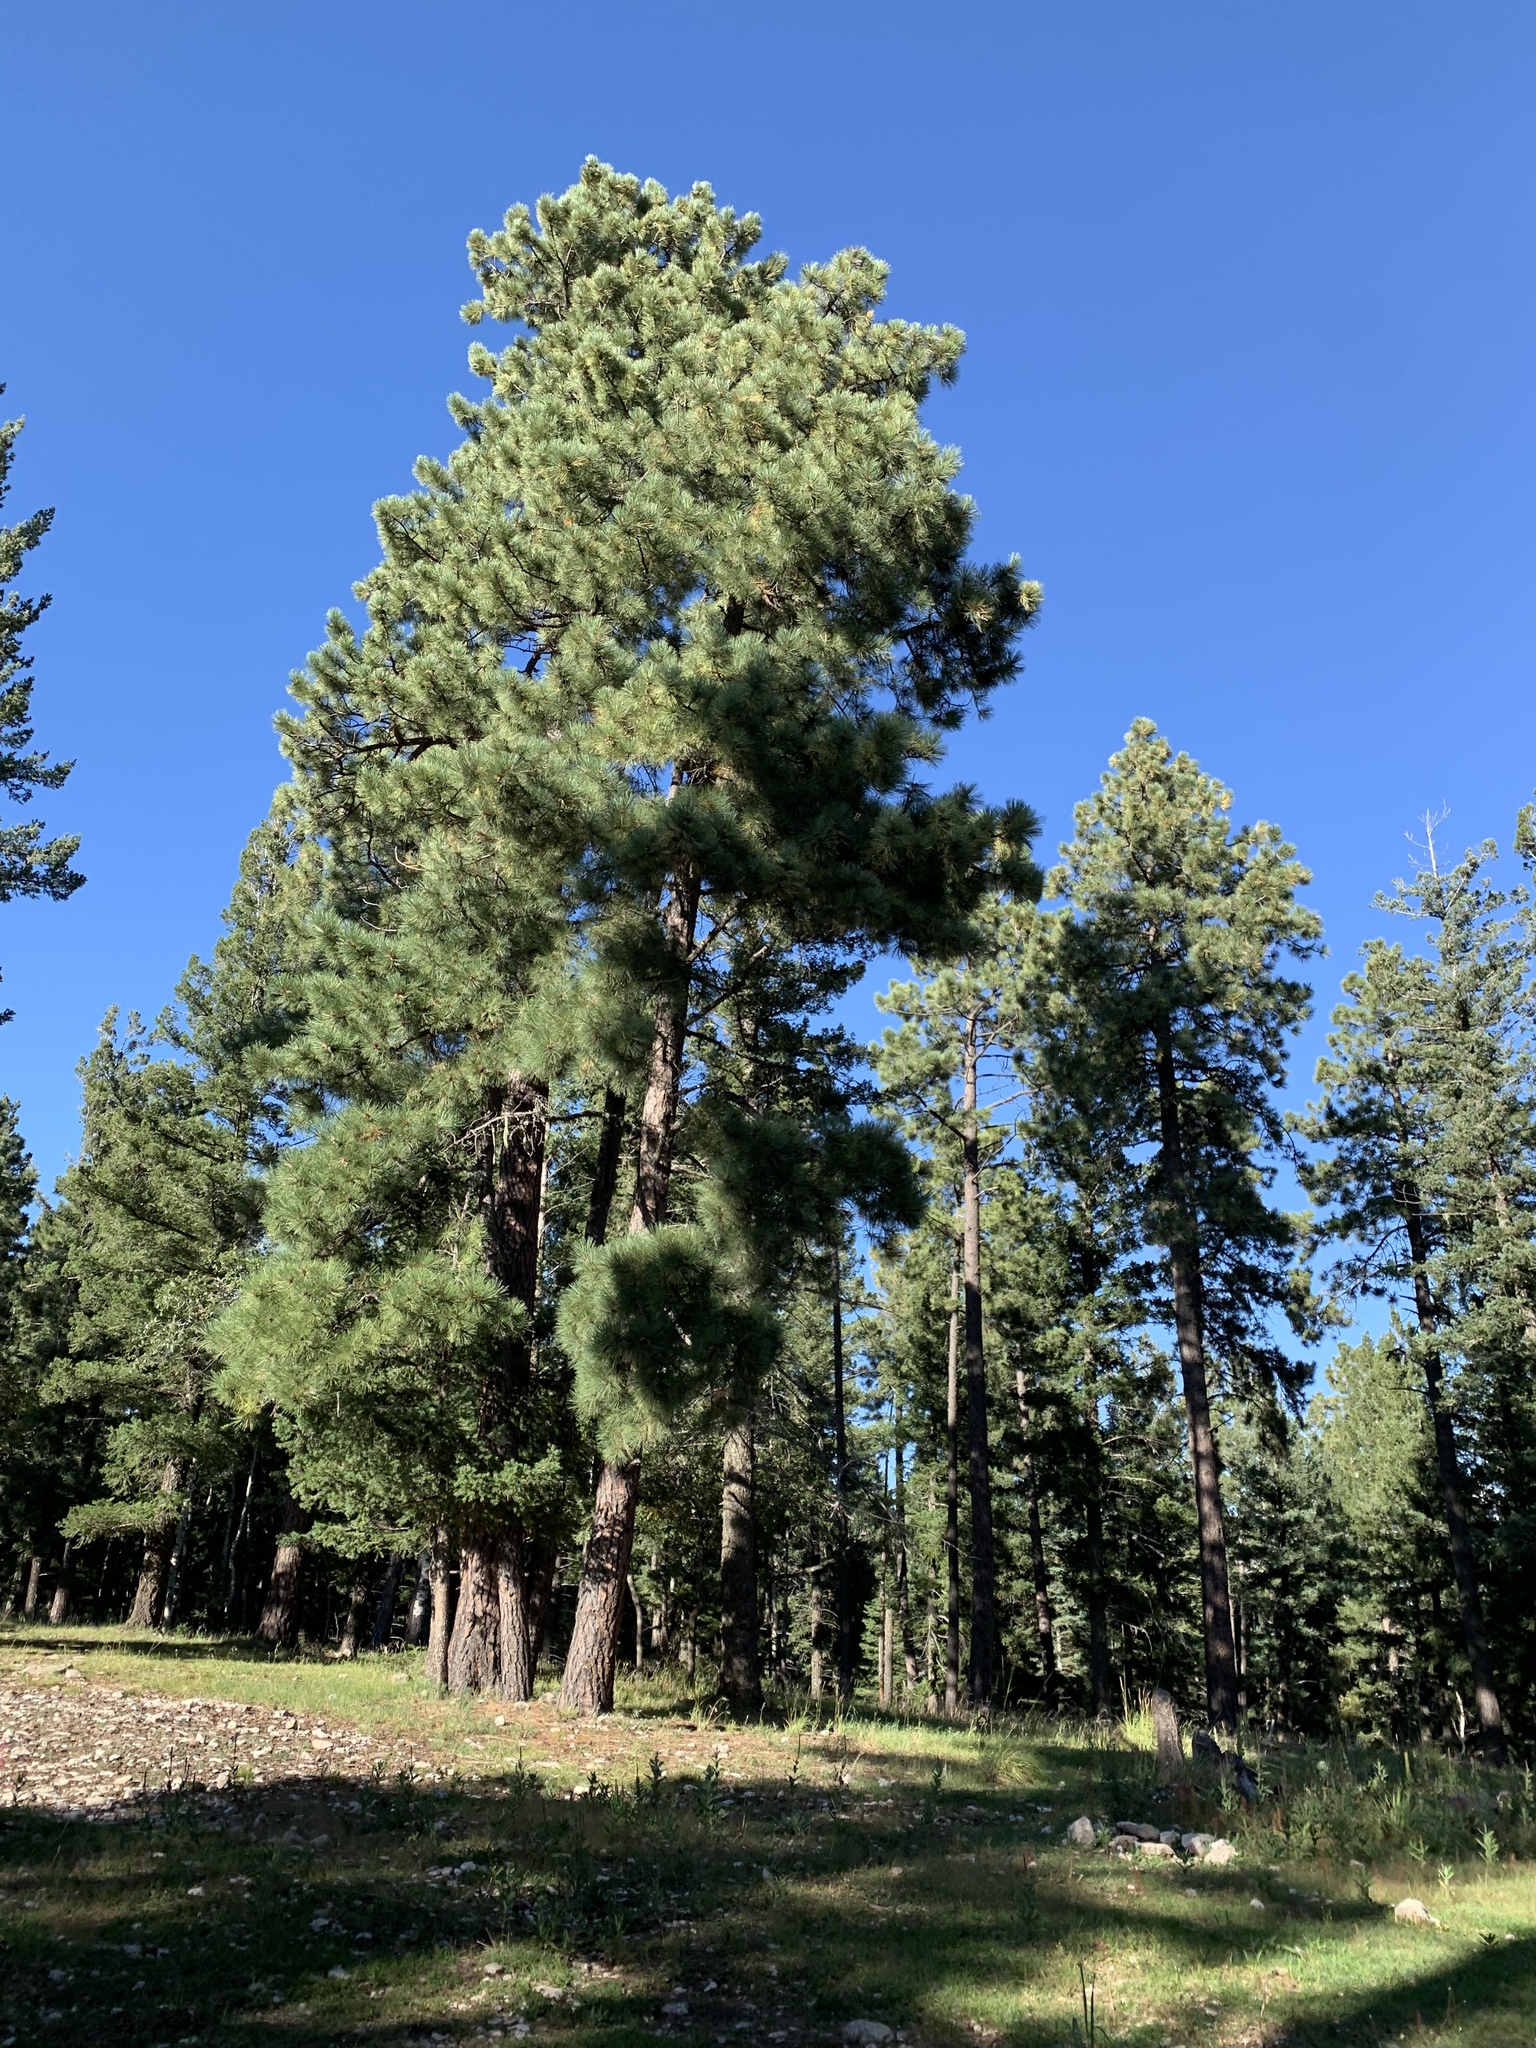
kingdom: Plantae
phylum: Tracheophyta
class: Pinopsida
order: Pinales
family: Pinaceae
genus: Pinus
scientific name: Pinus ponderosa
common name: Western yellow-pine
